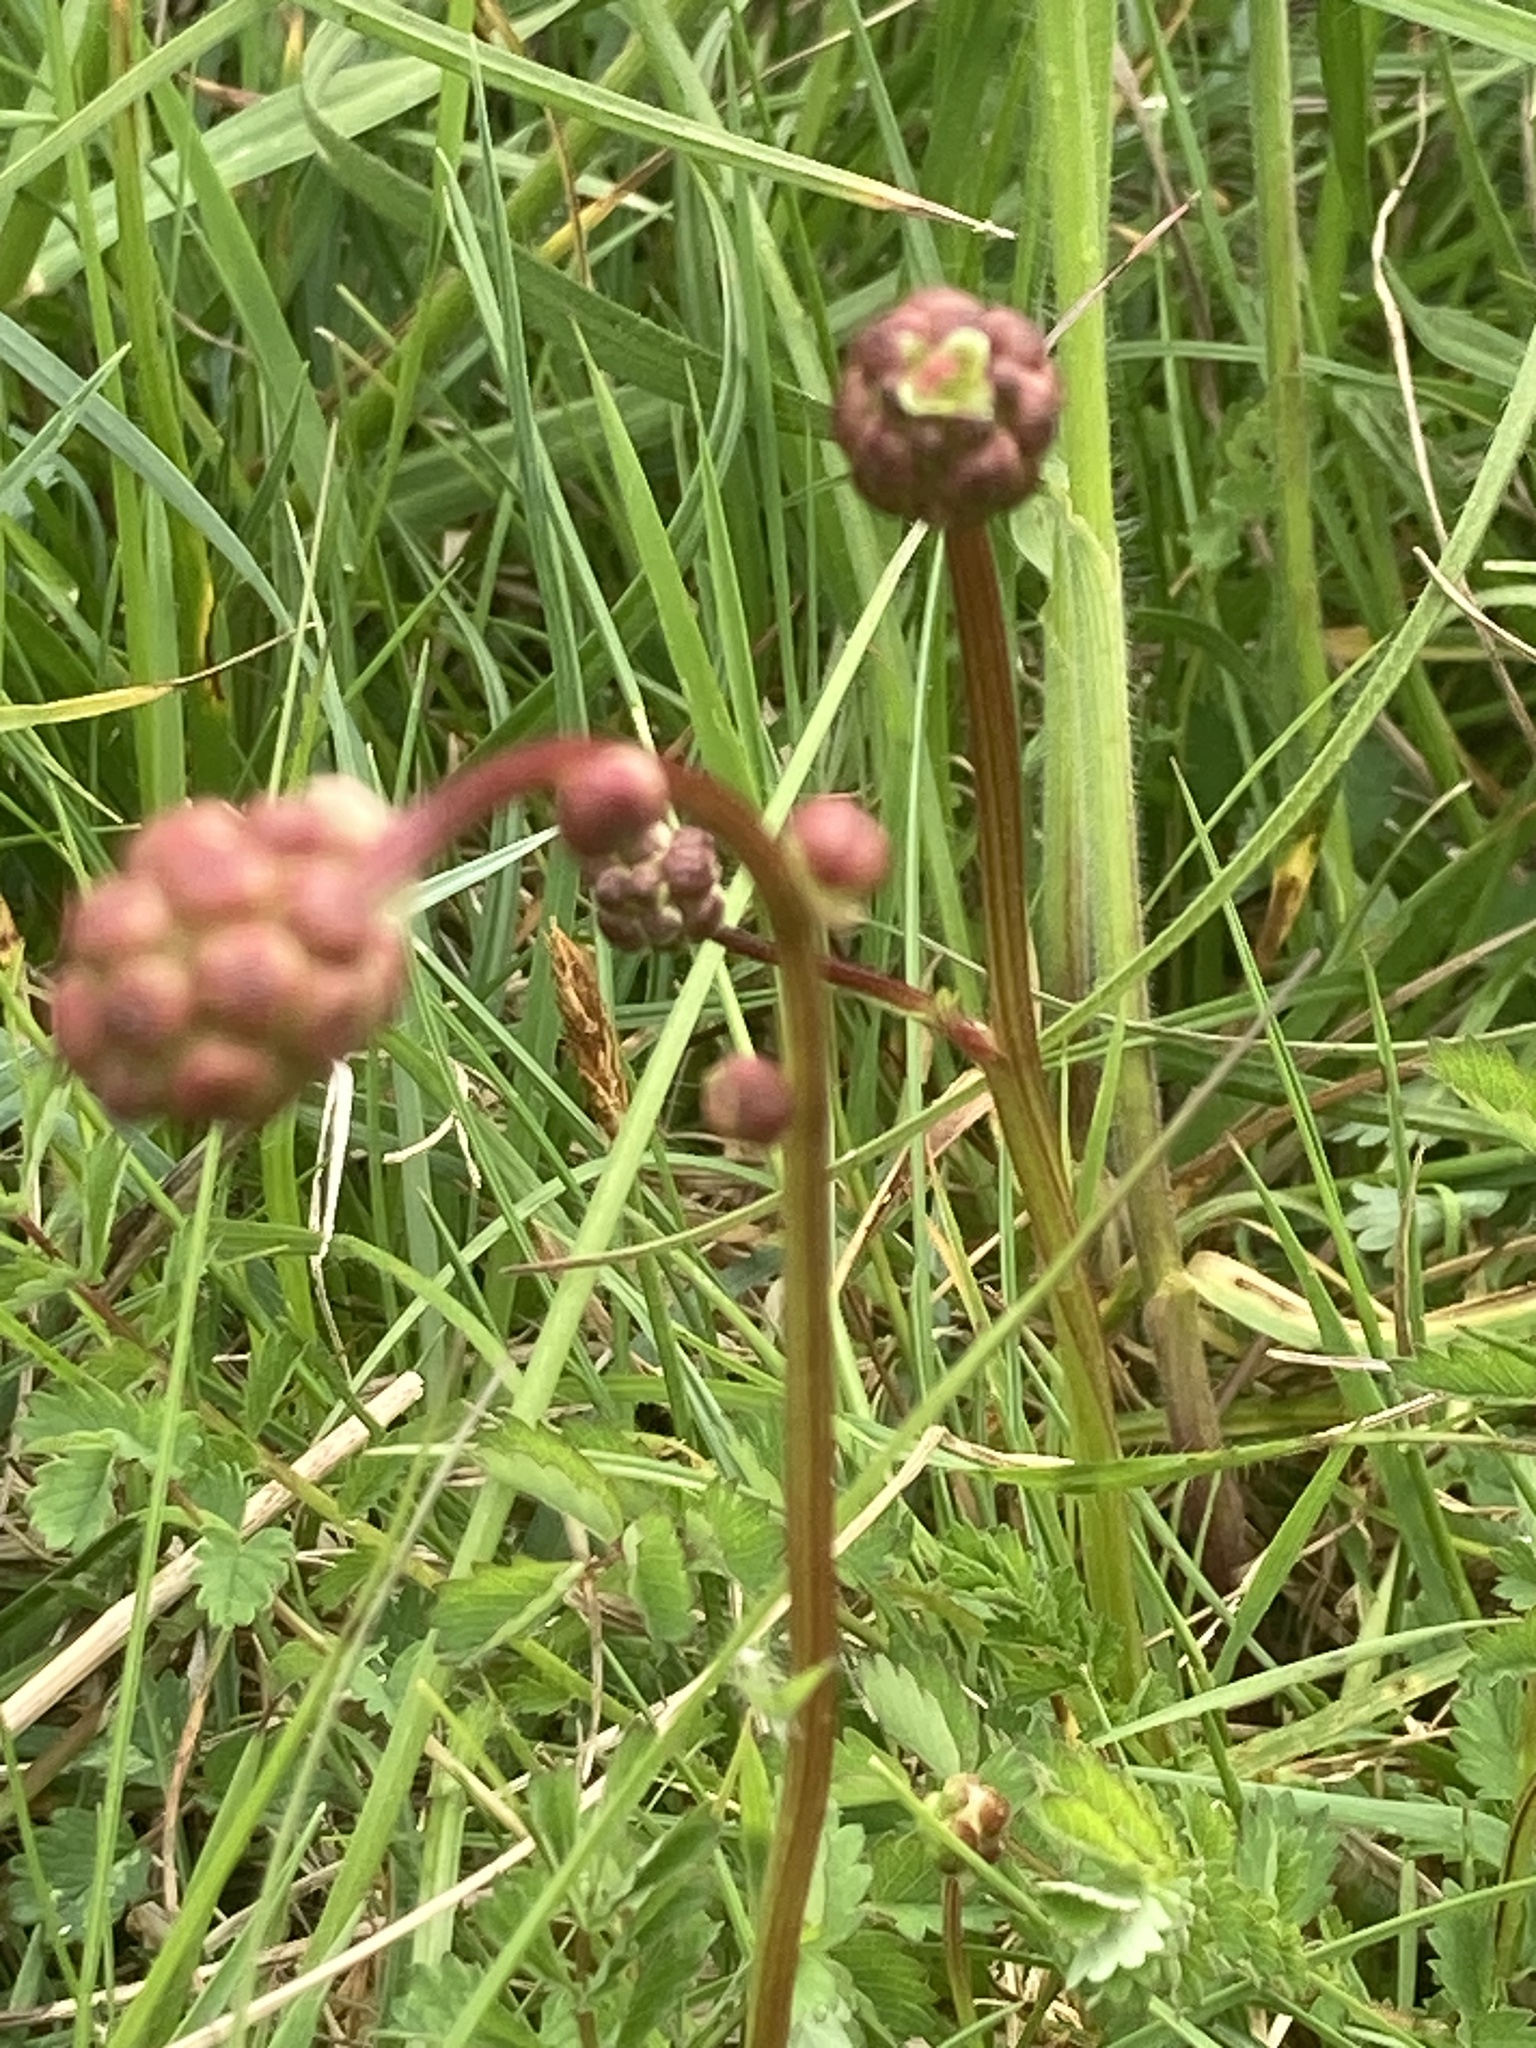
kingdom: Plantae
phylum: Tracheophyta
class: Magnoliopsida
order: Rosales
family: Rosaceae
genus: Poterium
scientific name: Poterium sanguisorba
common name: Salad burnet
